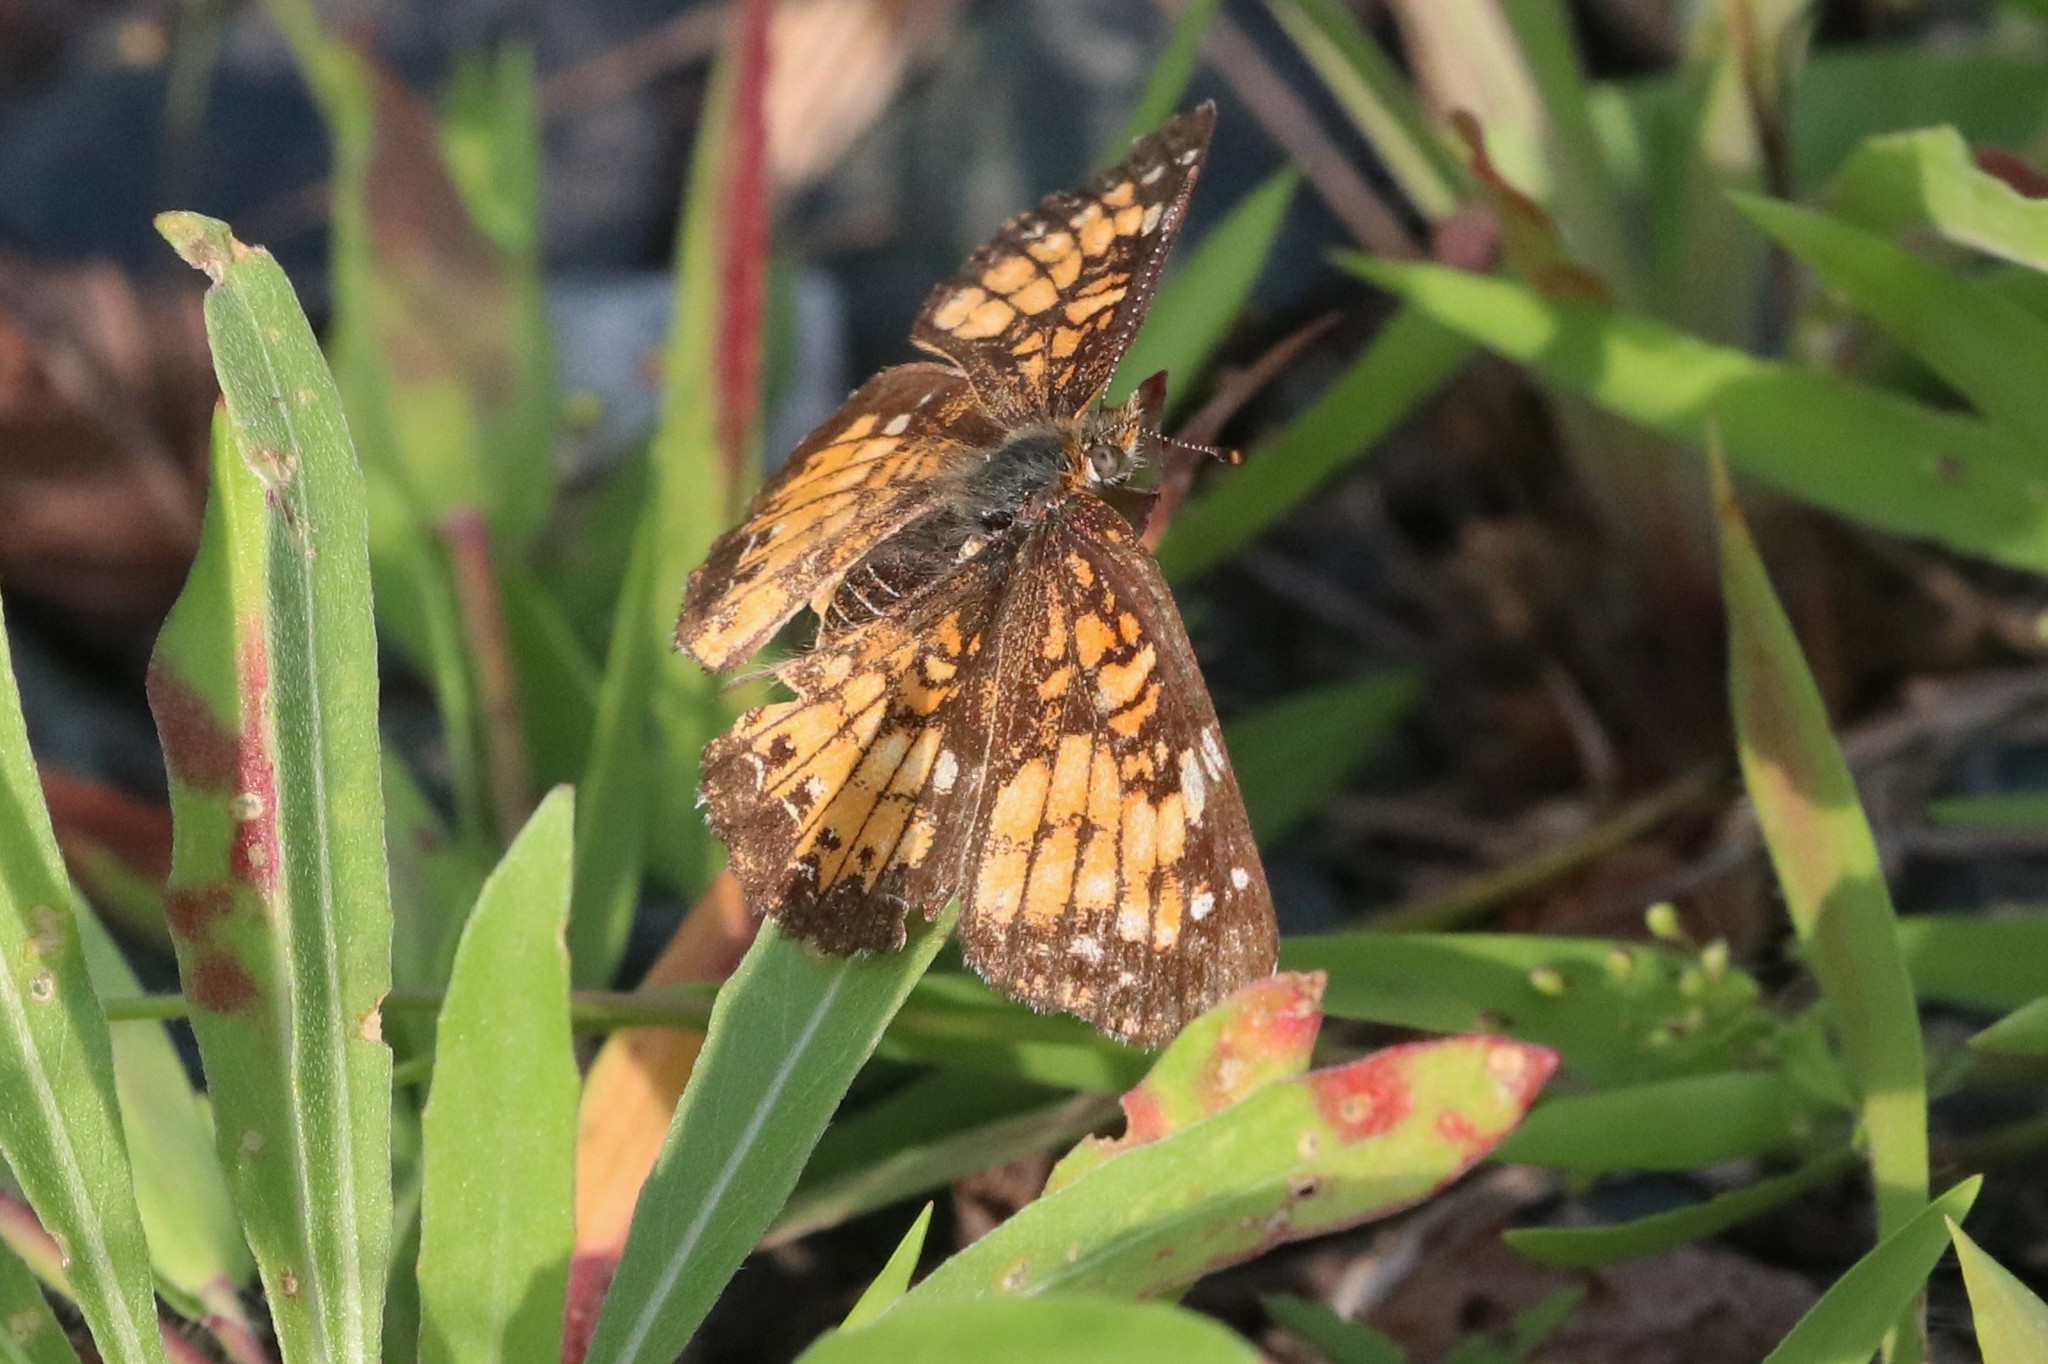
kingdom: Animalia
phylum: Arthropoda
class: Insecta
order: Lepidoptera
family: Nymphalidae
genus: Chlosyne
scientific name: Chlosyne harrisii
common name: Harris's checkerspot
